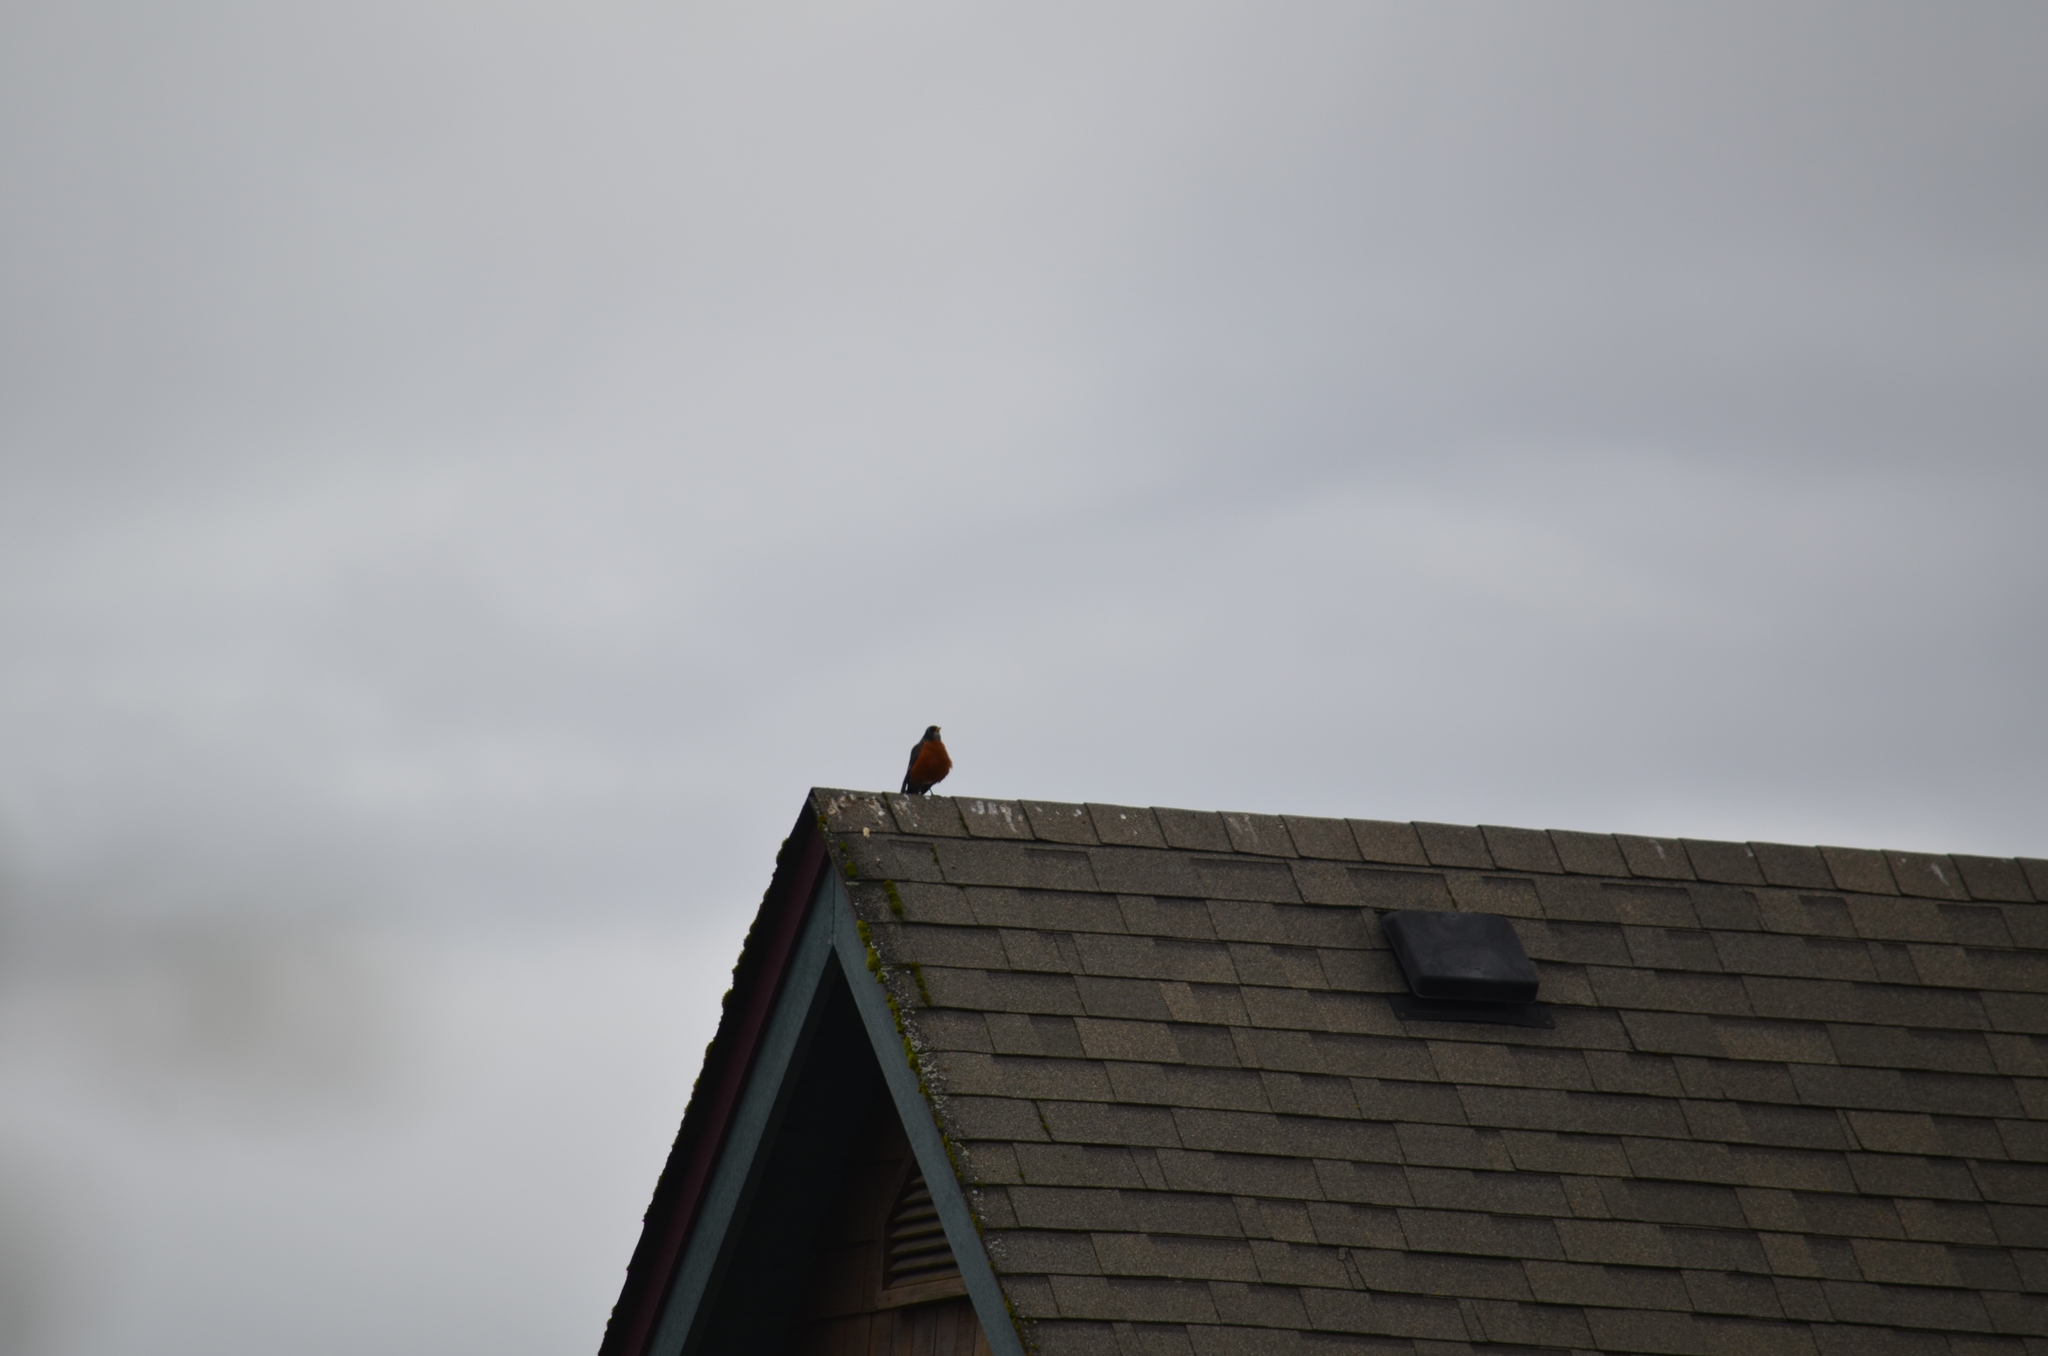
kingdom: Animalia
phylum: Chordata
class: Aves
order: Passeriformes
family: Turdidae
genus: Turdus
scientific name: Turdus migratorius
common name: American robin
